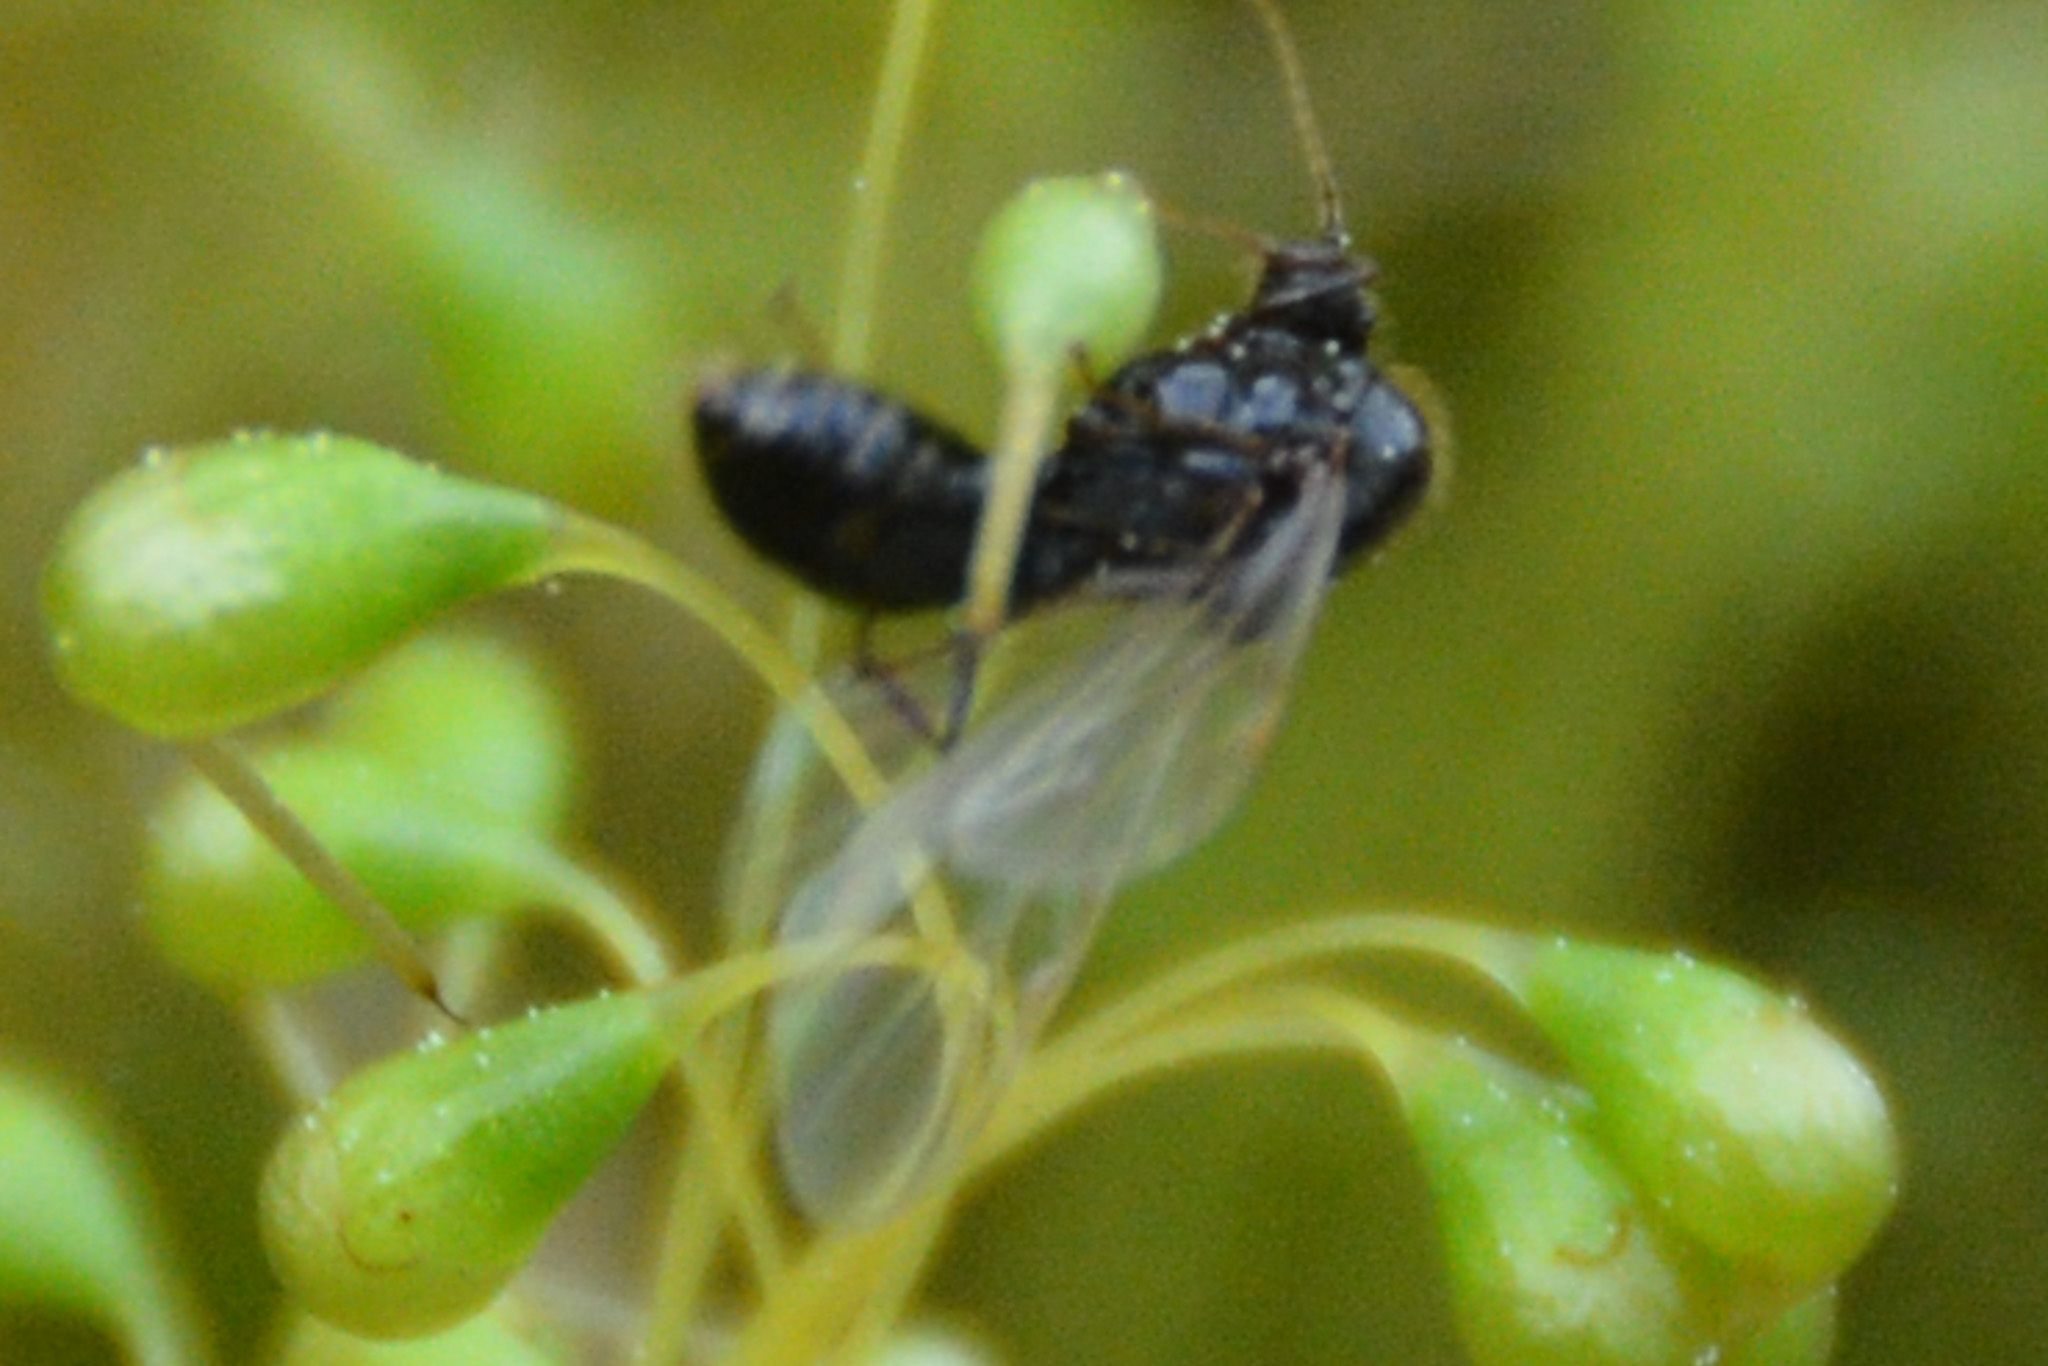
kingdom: Animalia
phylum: Arthropoda
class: Insecta
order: Hymenoptera
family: Formicidae
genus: Solenopsis
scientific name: Solenopsis invicta
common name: Red imported fire ant
